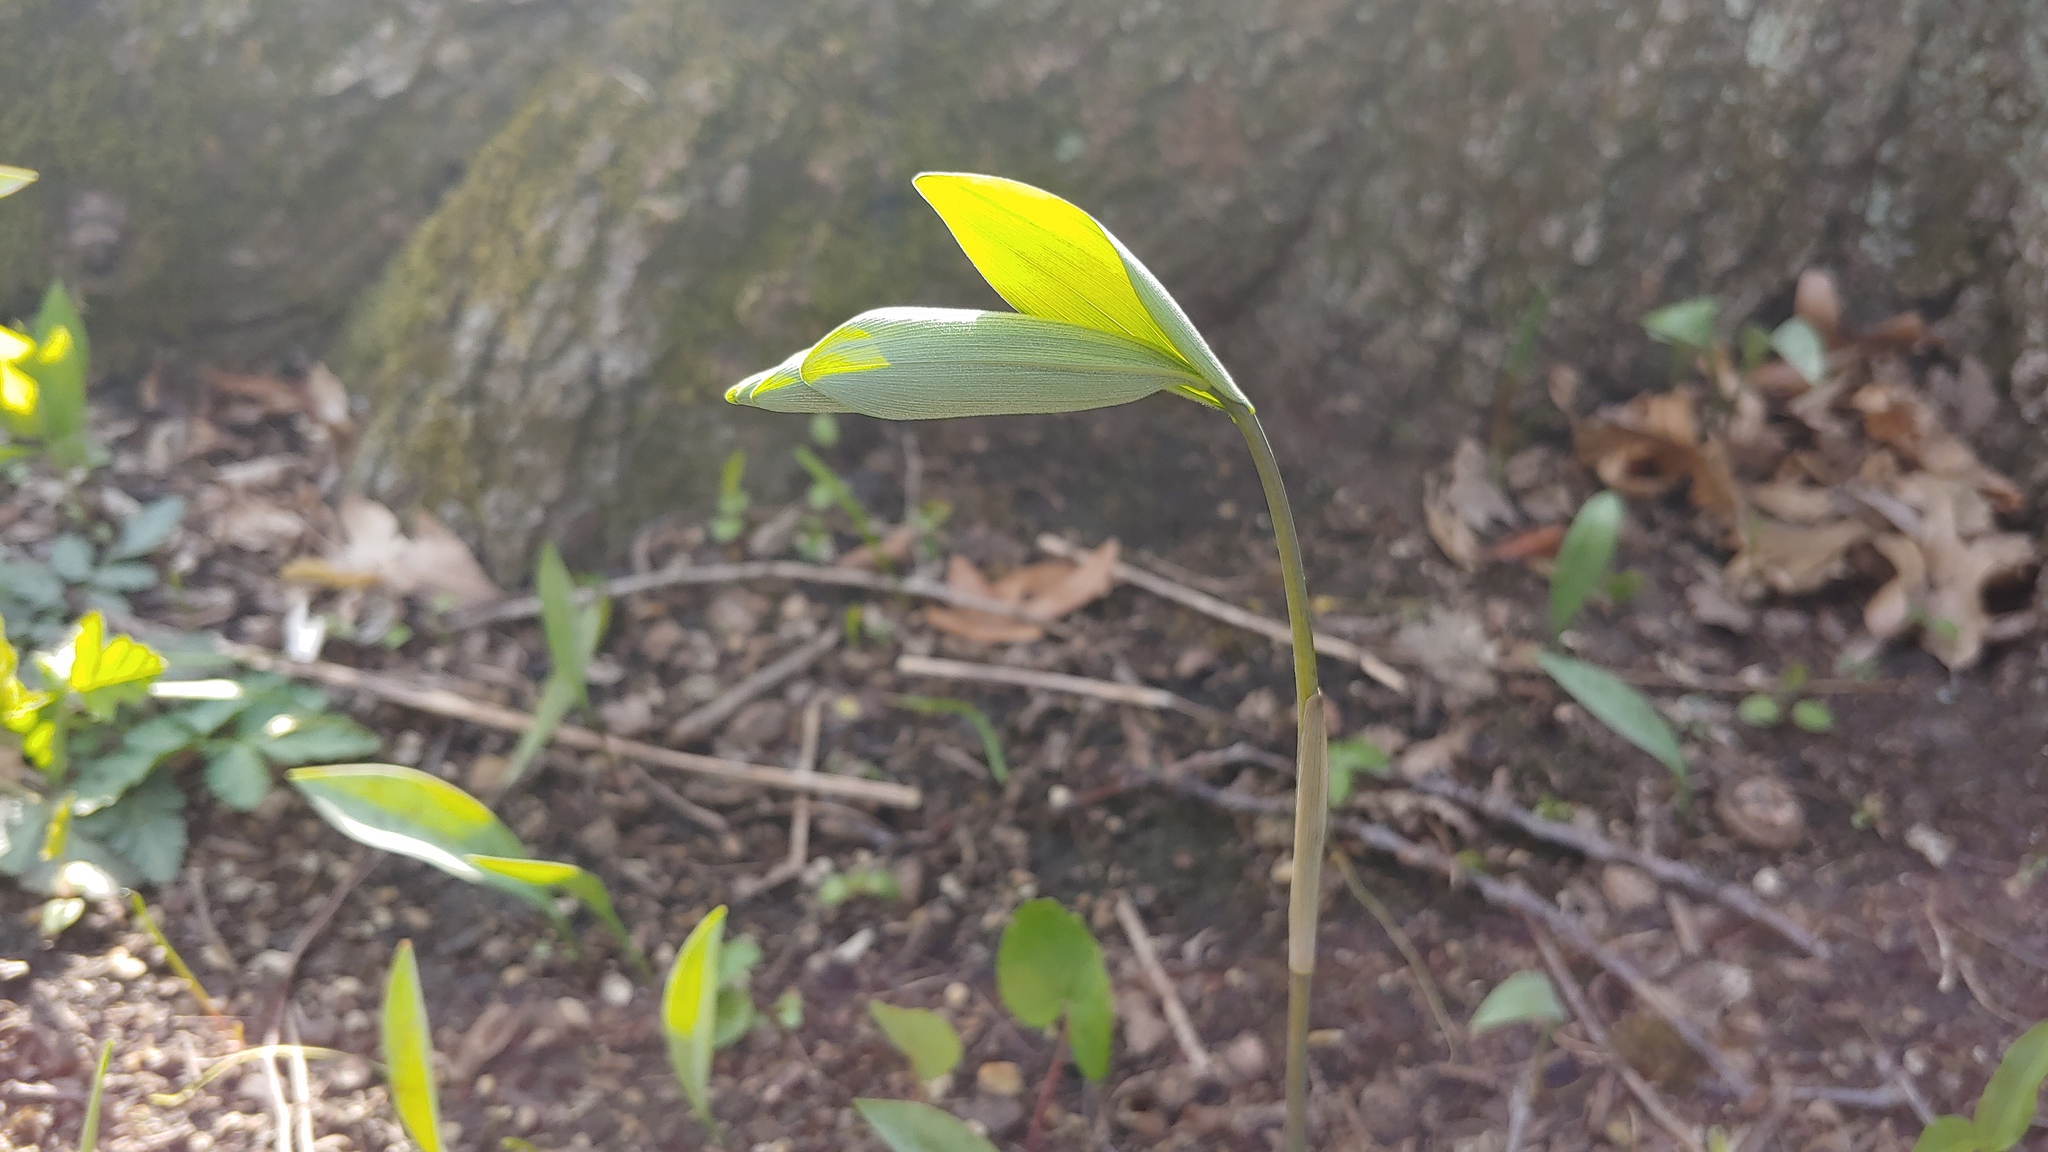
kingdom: Plantae
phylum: Tracheophyta
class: Liliopsida
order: Asparagales
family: Asparagaceae
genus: Polygonatum
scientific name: Polygonatum pubescens
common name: Downy solomon's seal
